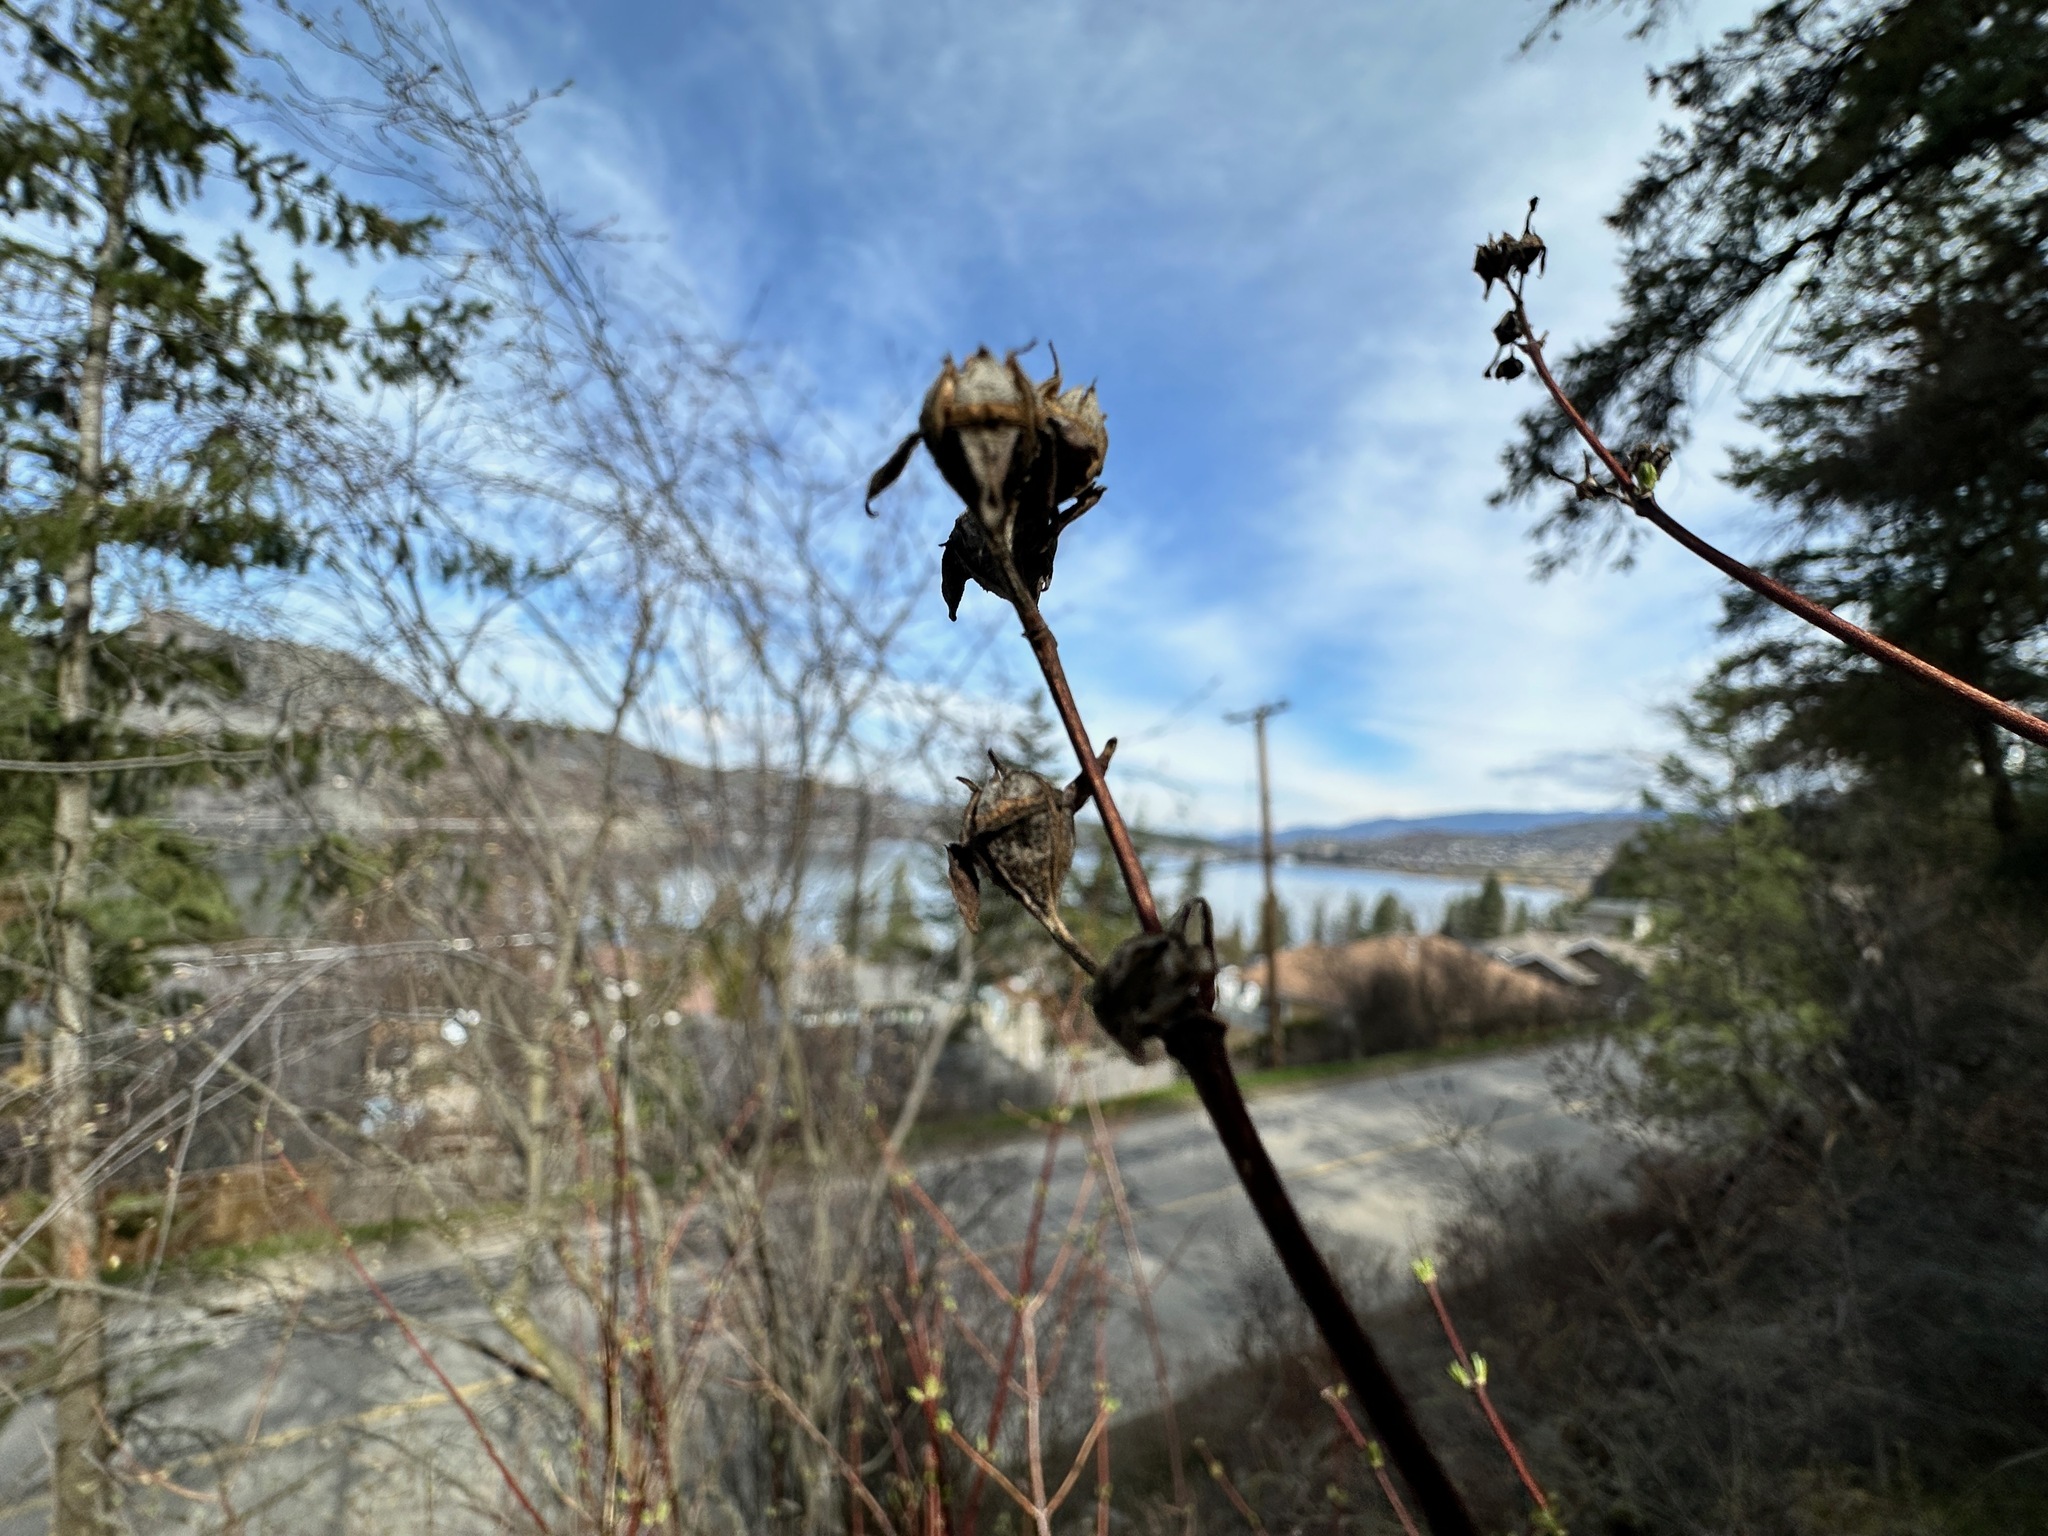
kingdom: Plantae
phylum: Tracheophyta
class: Magnoliopsida
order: Cornales
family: Hydrangeaceae
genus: Philadelphus
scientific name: Philadelphus lewisii
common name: Lewis's mock orange
